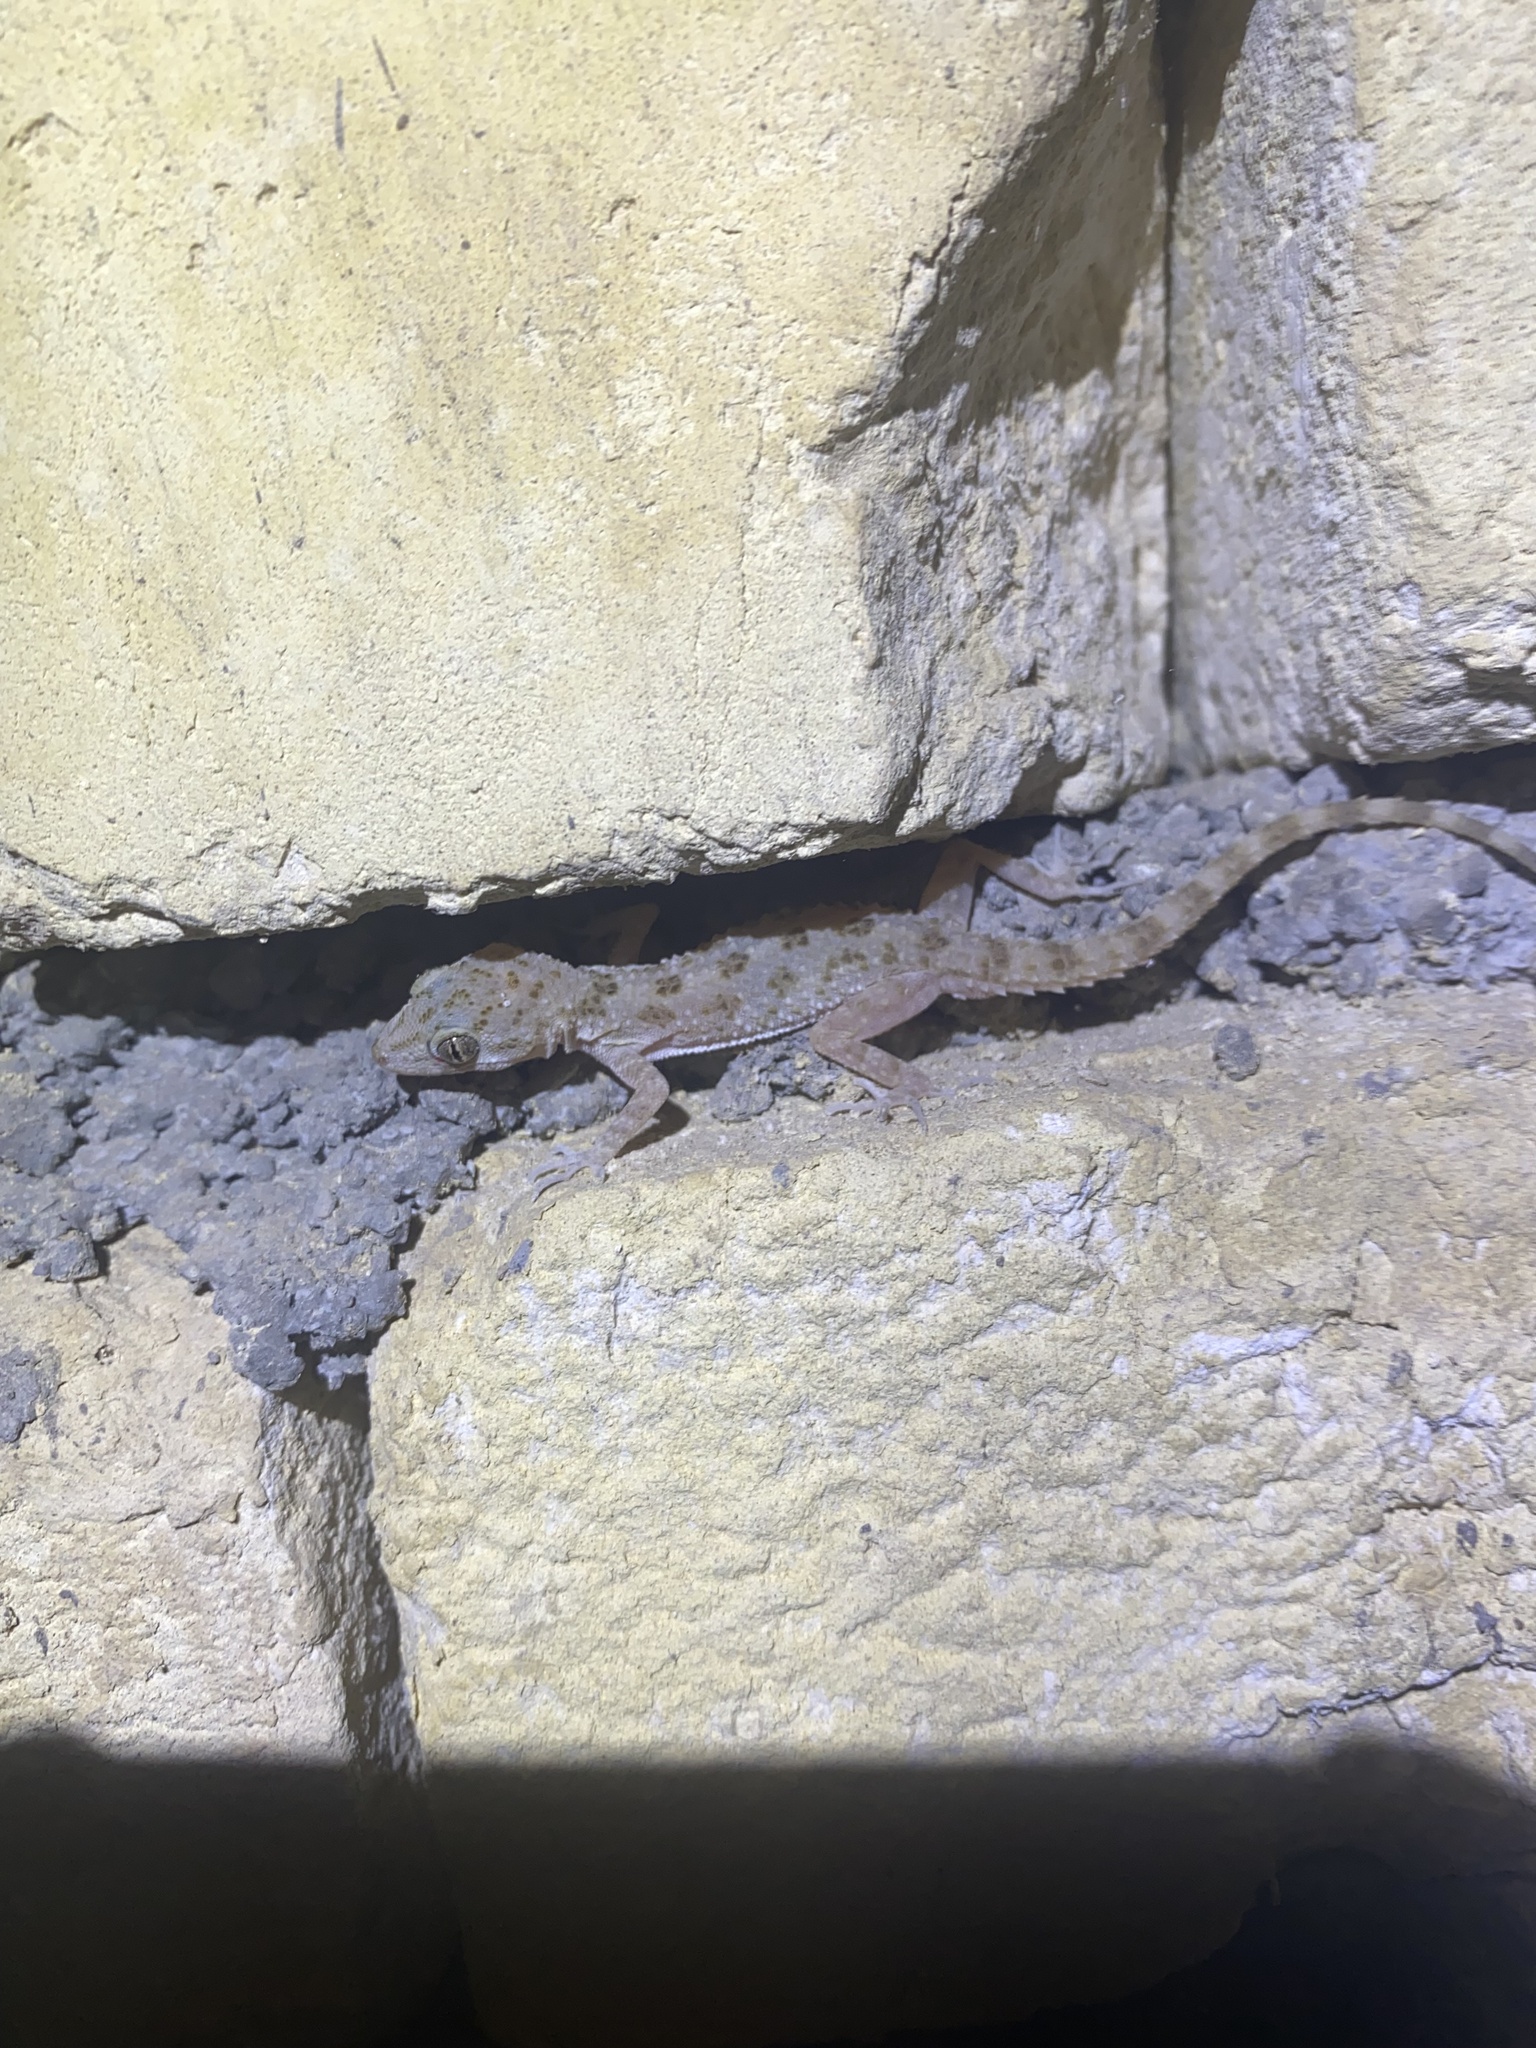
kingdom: Animalia
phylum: Chordata
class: Squamata
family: Gekkonidae
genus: Cyrtopodion
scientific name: Cyrtopodion scabrum
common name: Rough-tailed gecko
